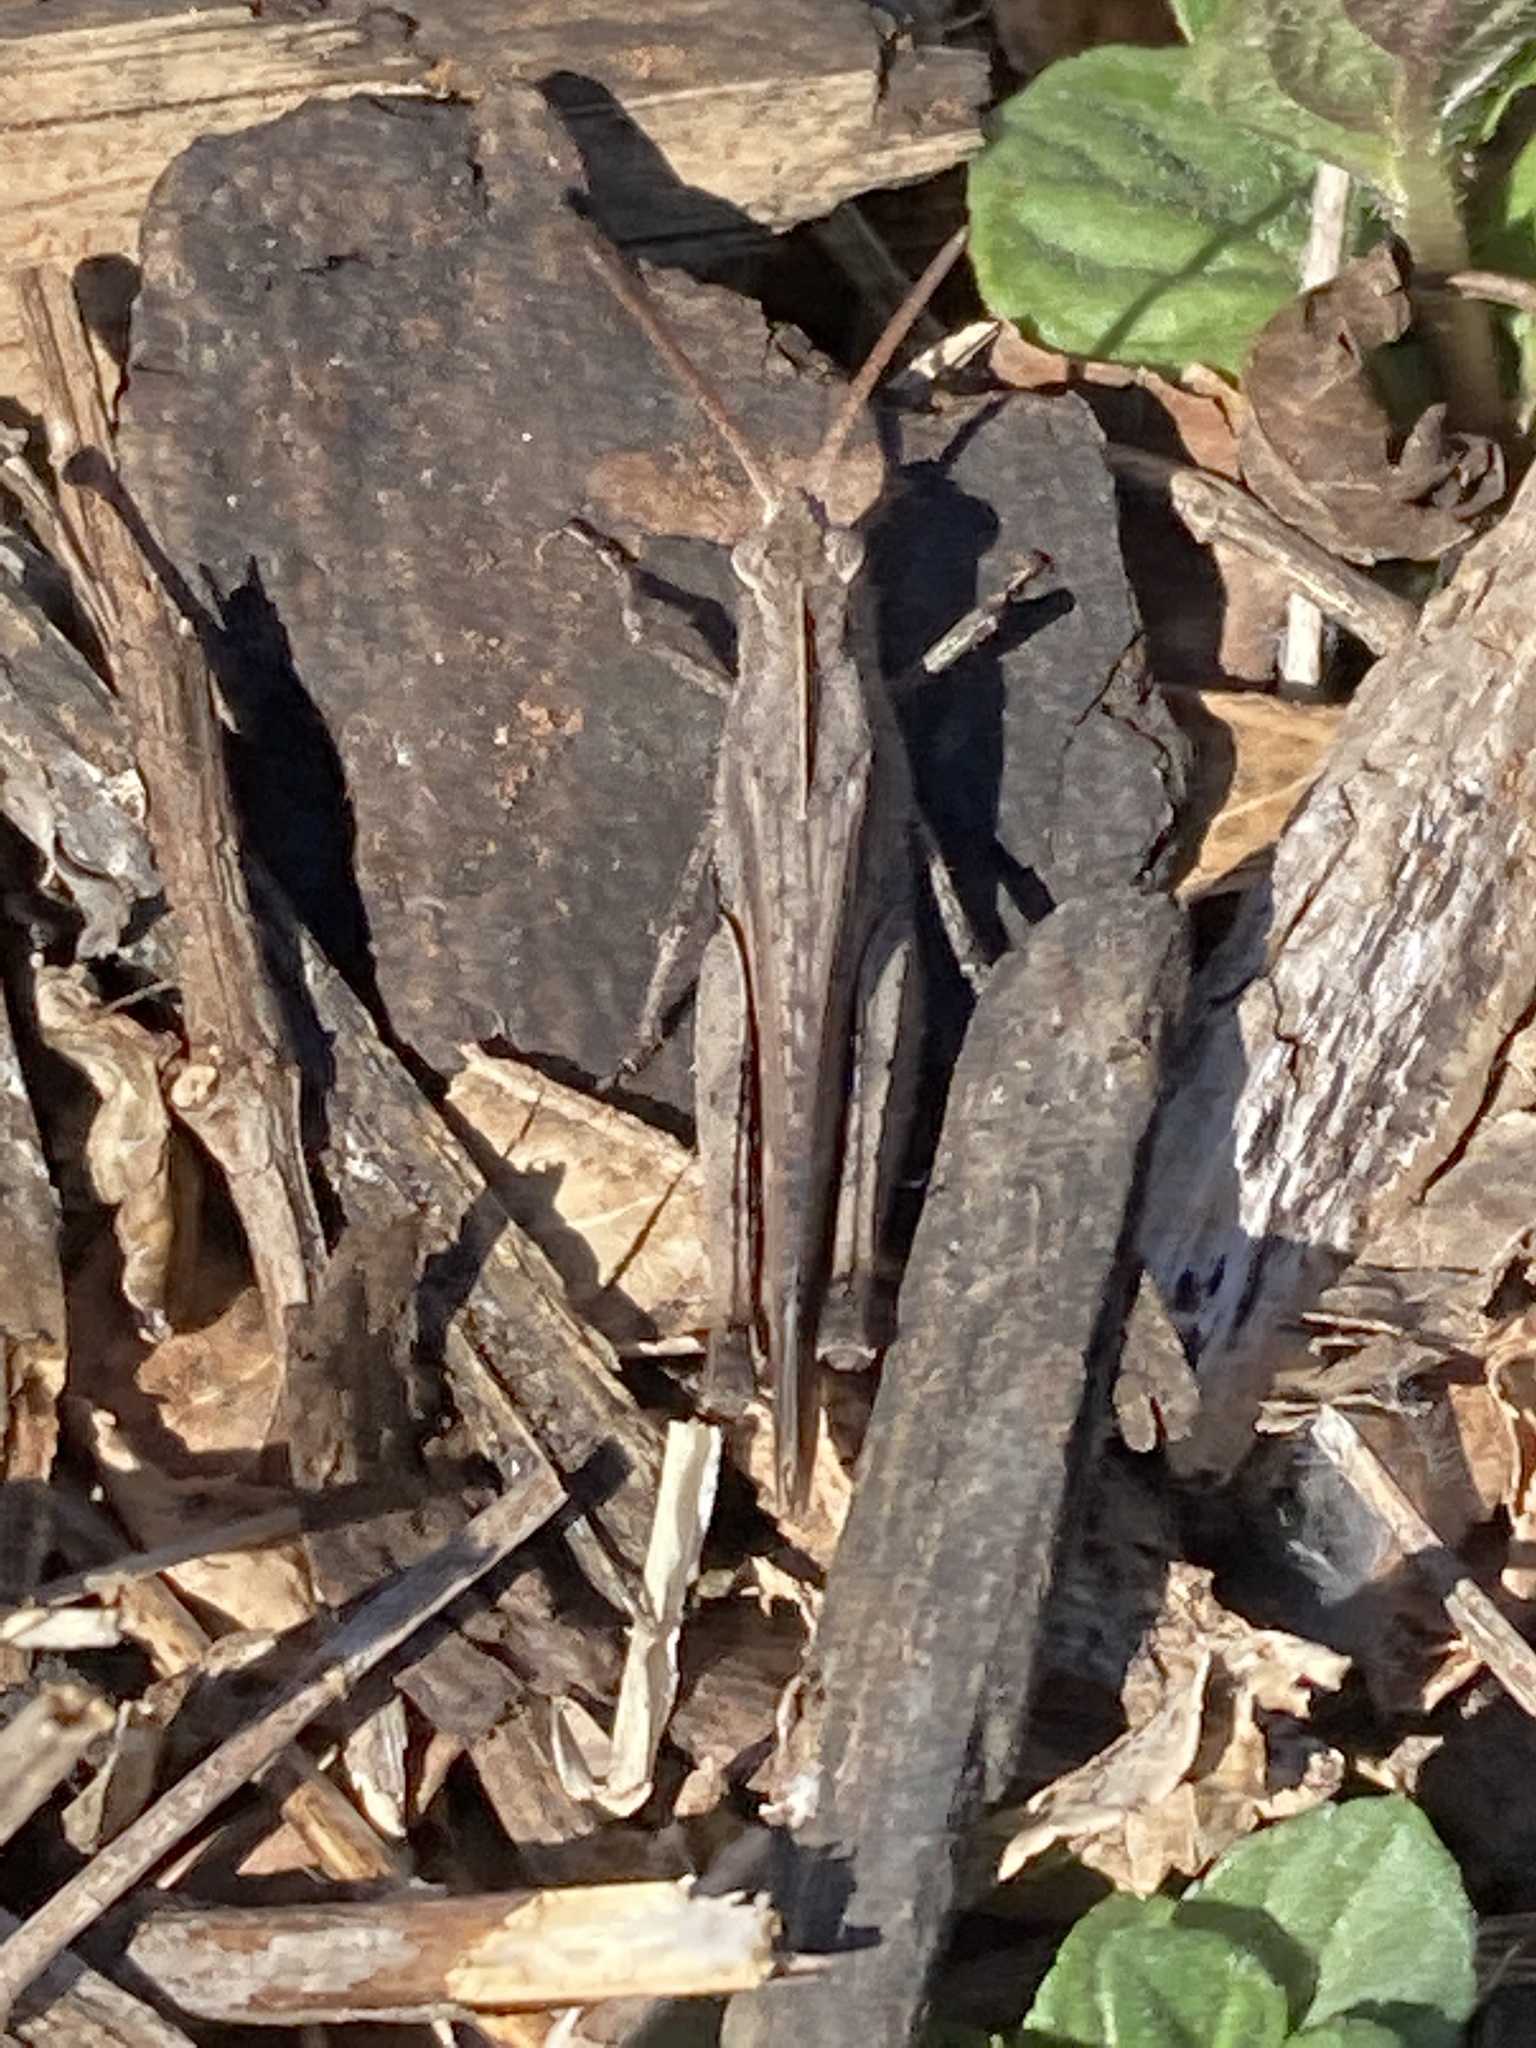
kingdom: Animalia
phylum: Arthropoda
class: Insecta
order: Orthoptera
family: Acrididae
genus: Chortophaga
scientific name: Chortophaga viridifasciata
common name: Green-striped grasshopper
